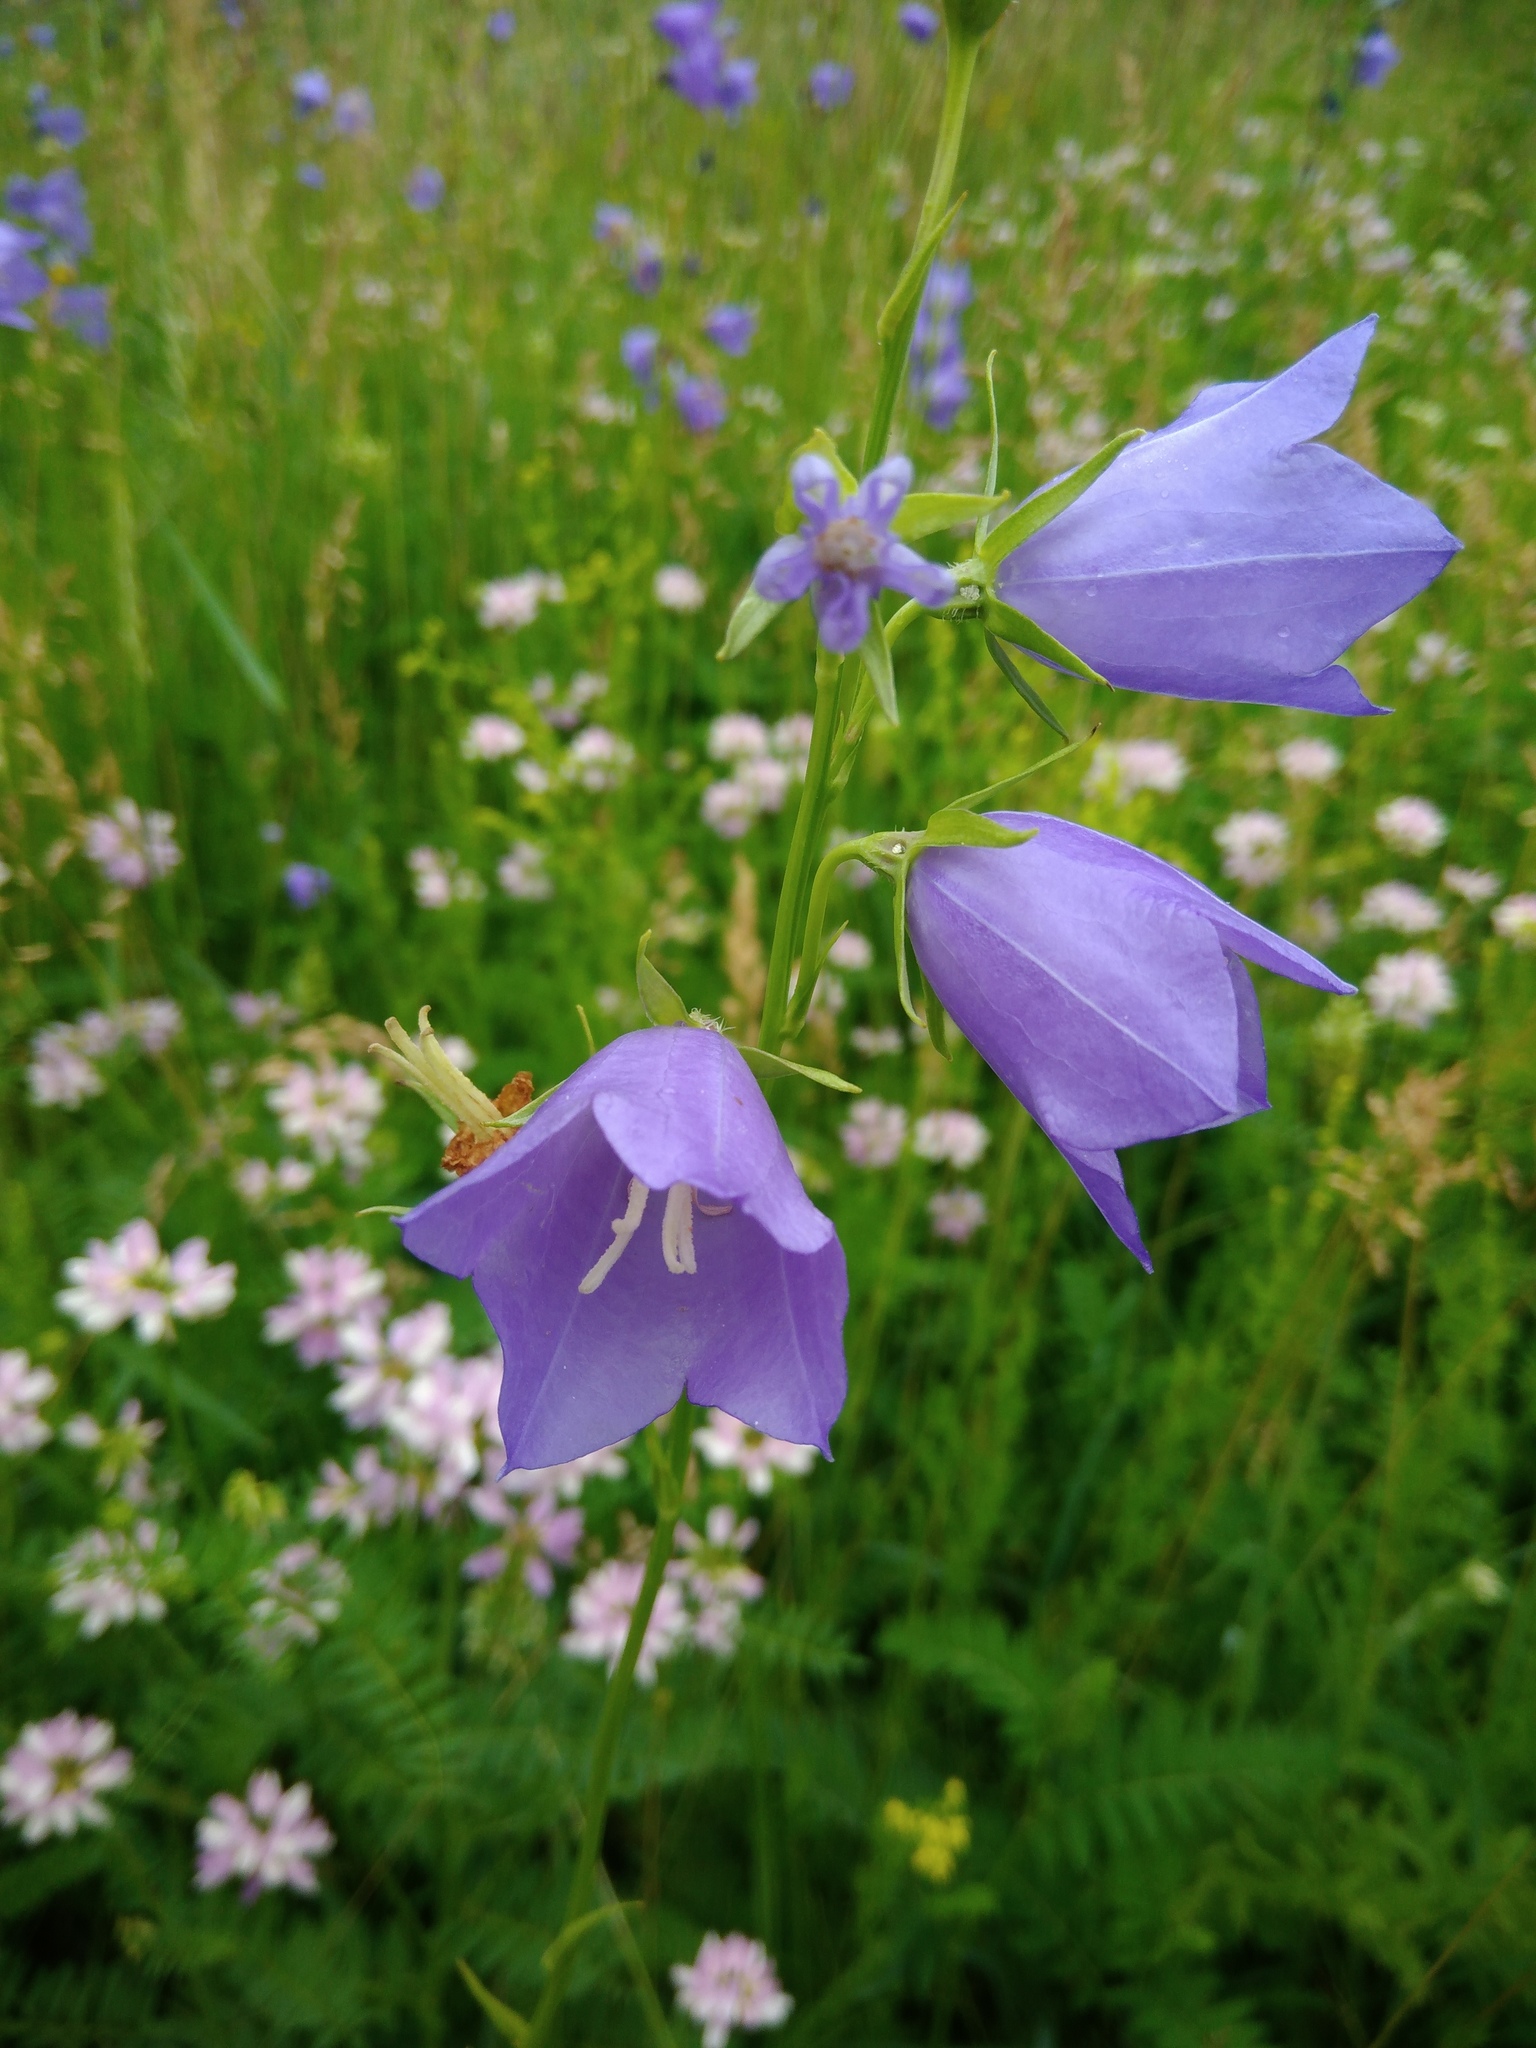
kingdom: Plantae
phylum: Tracheophyta
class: Magnoliopsida
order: Asterales
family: Campanulaceae
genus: Campanula
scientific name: Campanula persicifolia
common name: Peach-leaved bellflower
